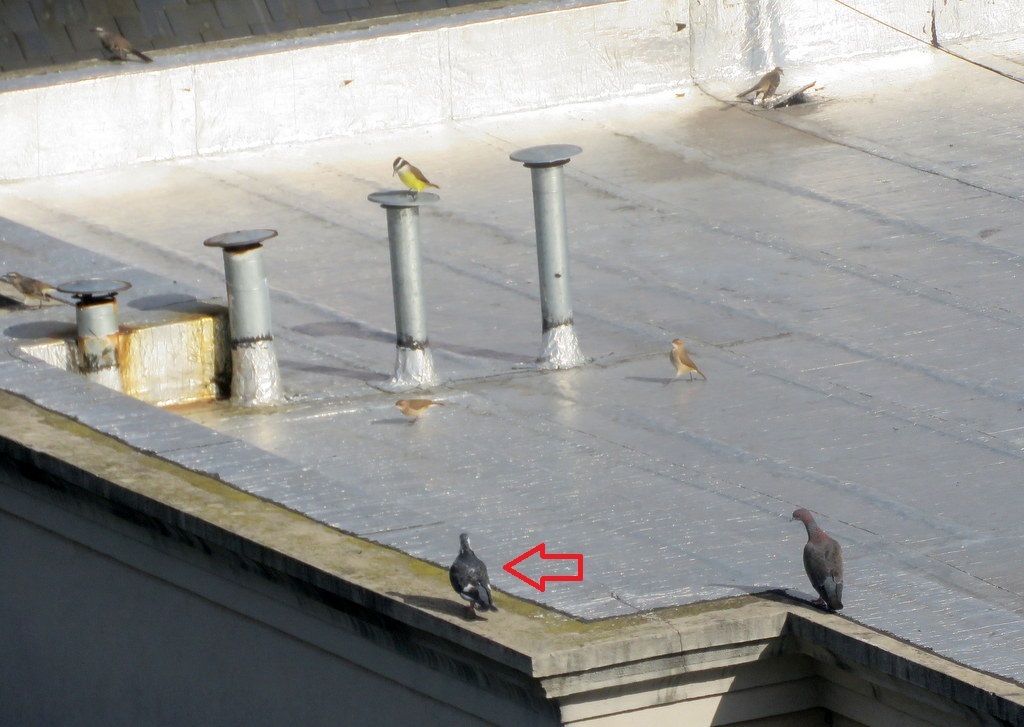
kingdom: Animalia
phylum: Chordata
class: Aves
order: Columbiformes
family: Columbidae
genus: Columba
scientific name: Columba livia
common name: Rock pigeon
